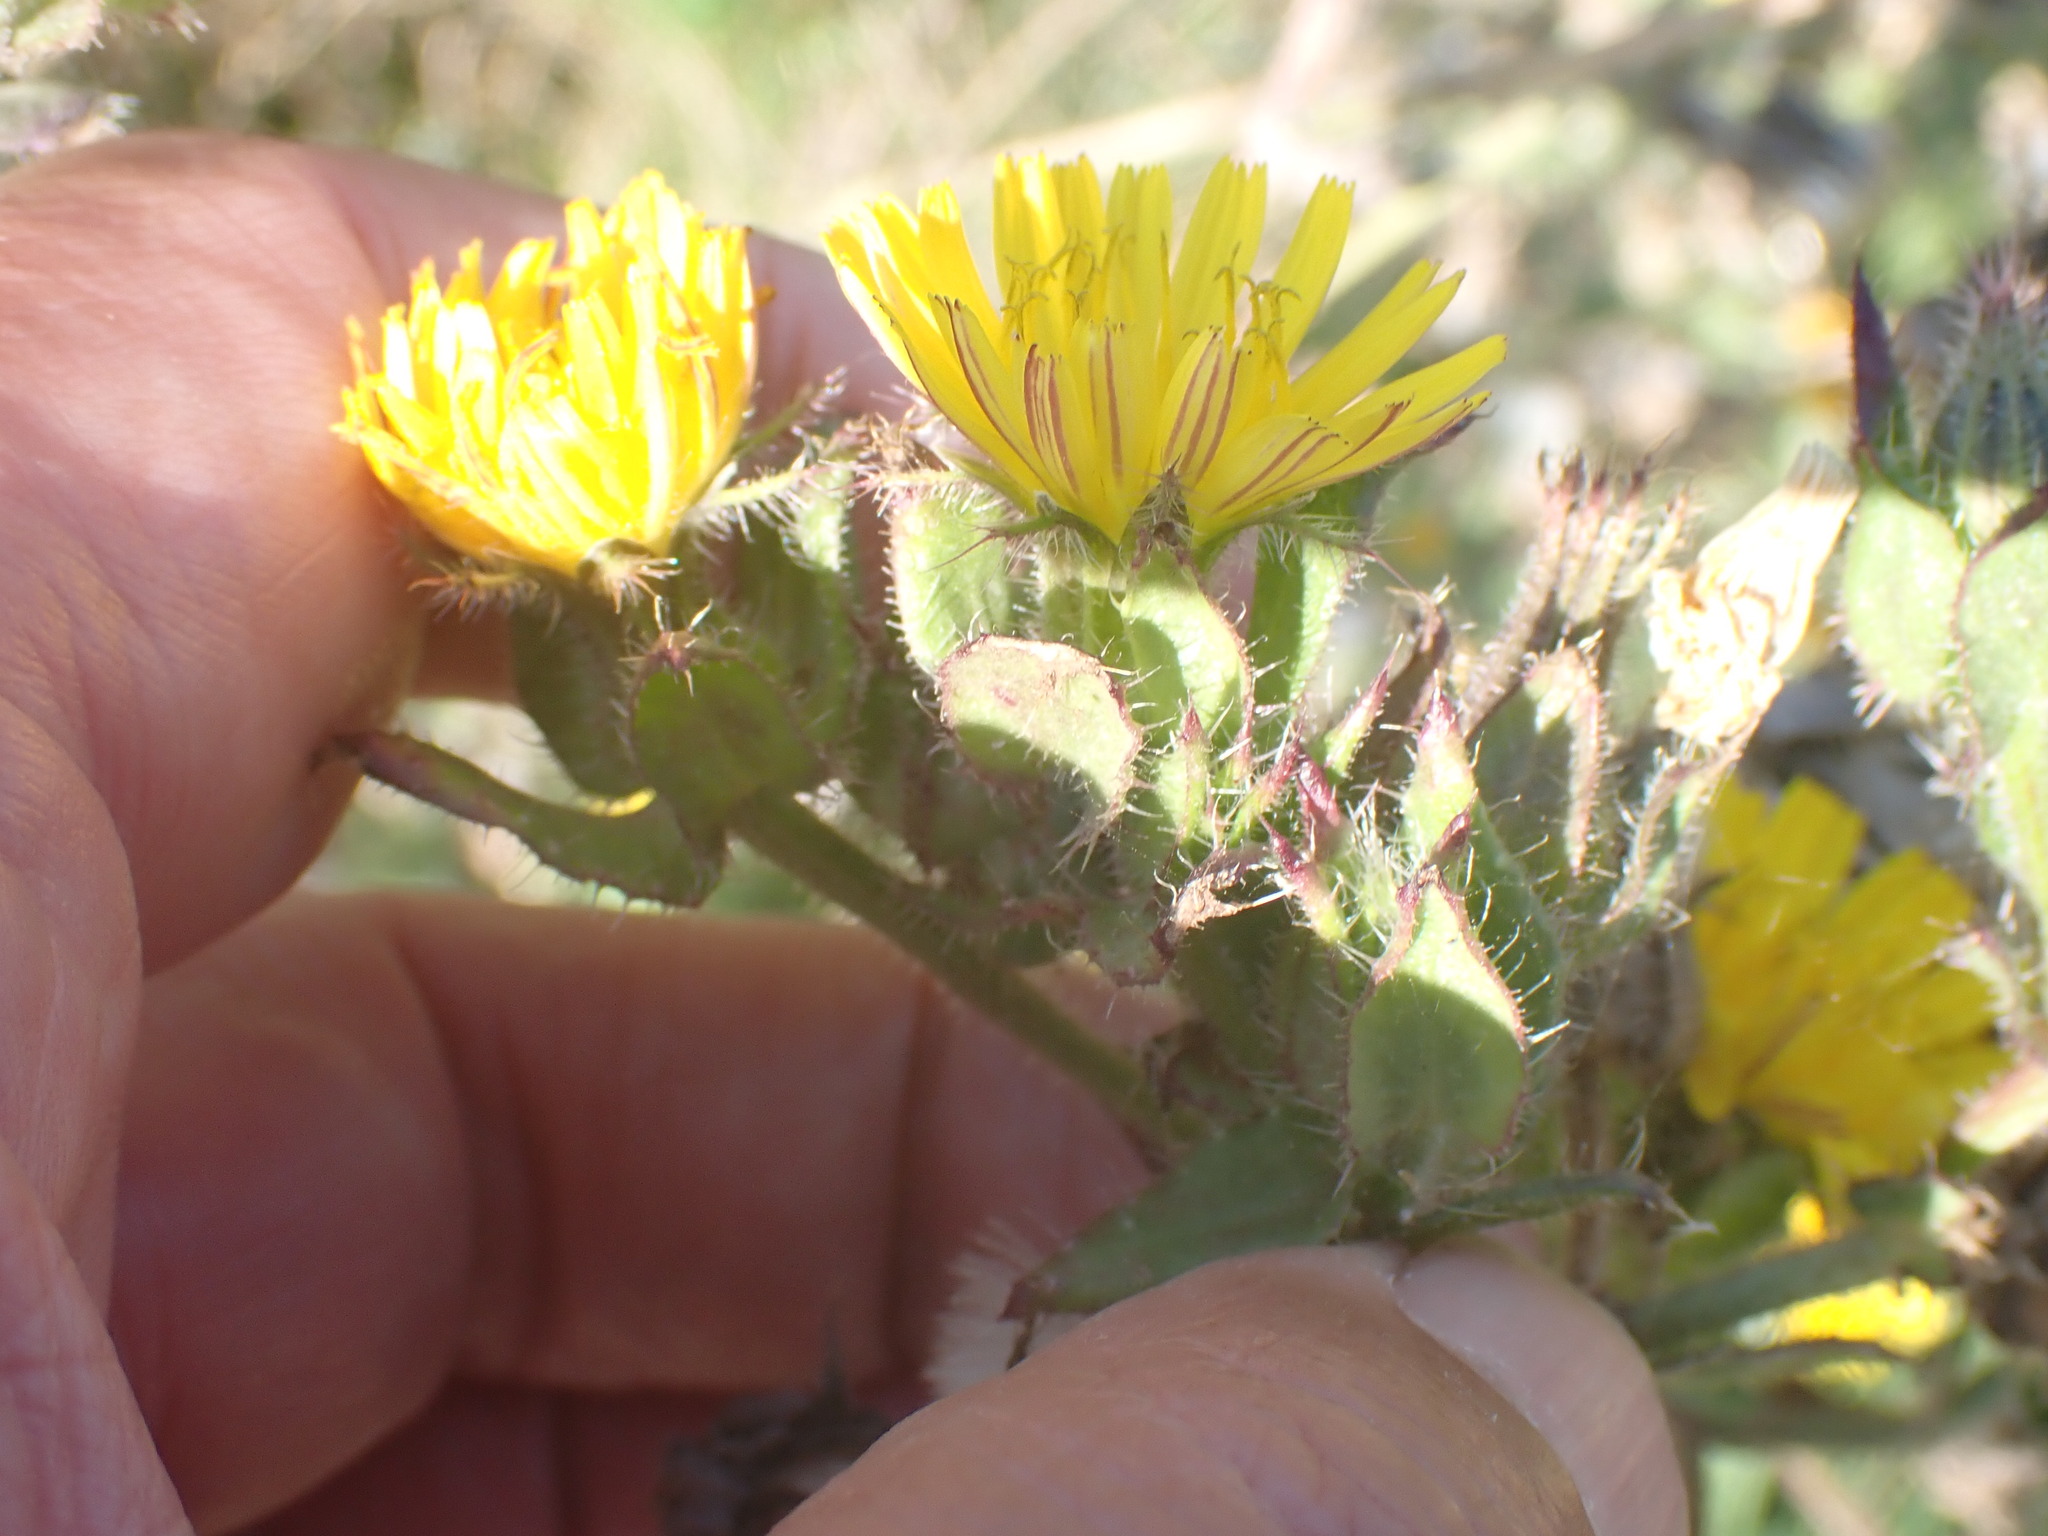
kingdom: Plantae
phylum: Tracheophyta
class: Magnoliopsida
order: Asterales
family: Asteraceae
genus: Helminthotheca
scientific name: Helminthotheca echioides
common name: Ox-tongue
